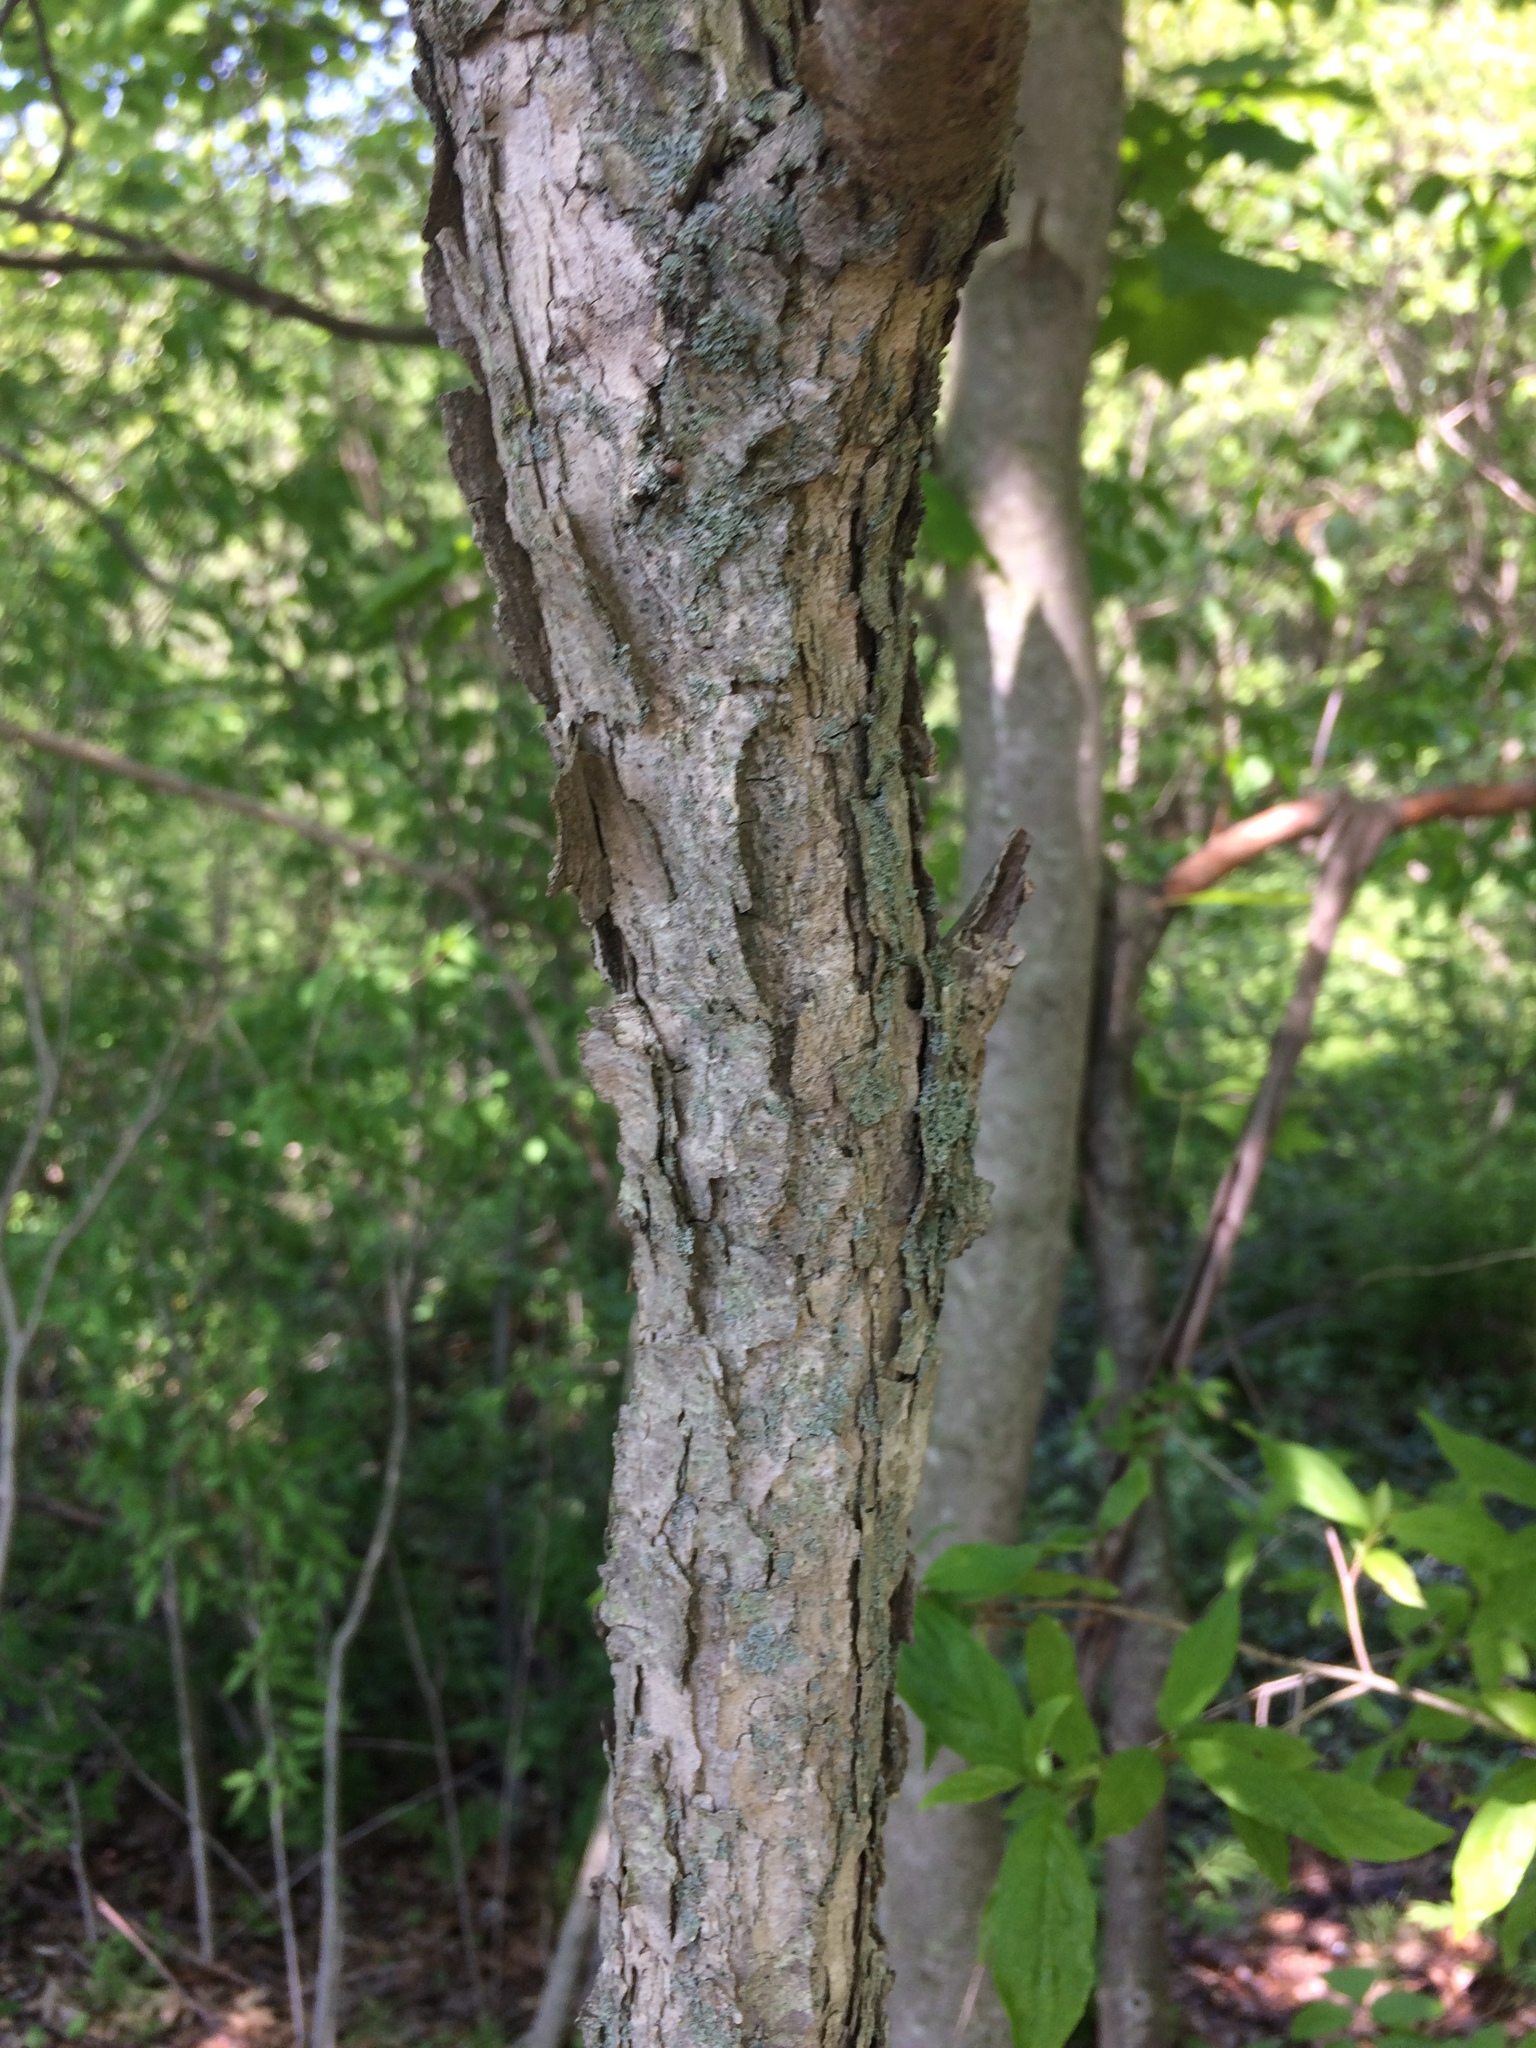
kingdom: Plantae
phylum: Tracheophyta
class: Magnoliopsida
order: Fagales
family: Fagaceae
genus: Quercus
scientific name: Quercus alba
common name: White oak
